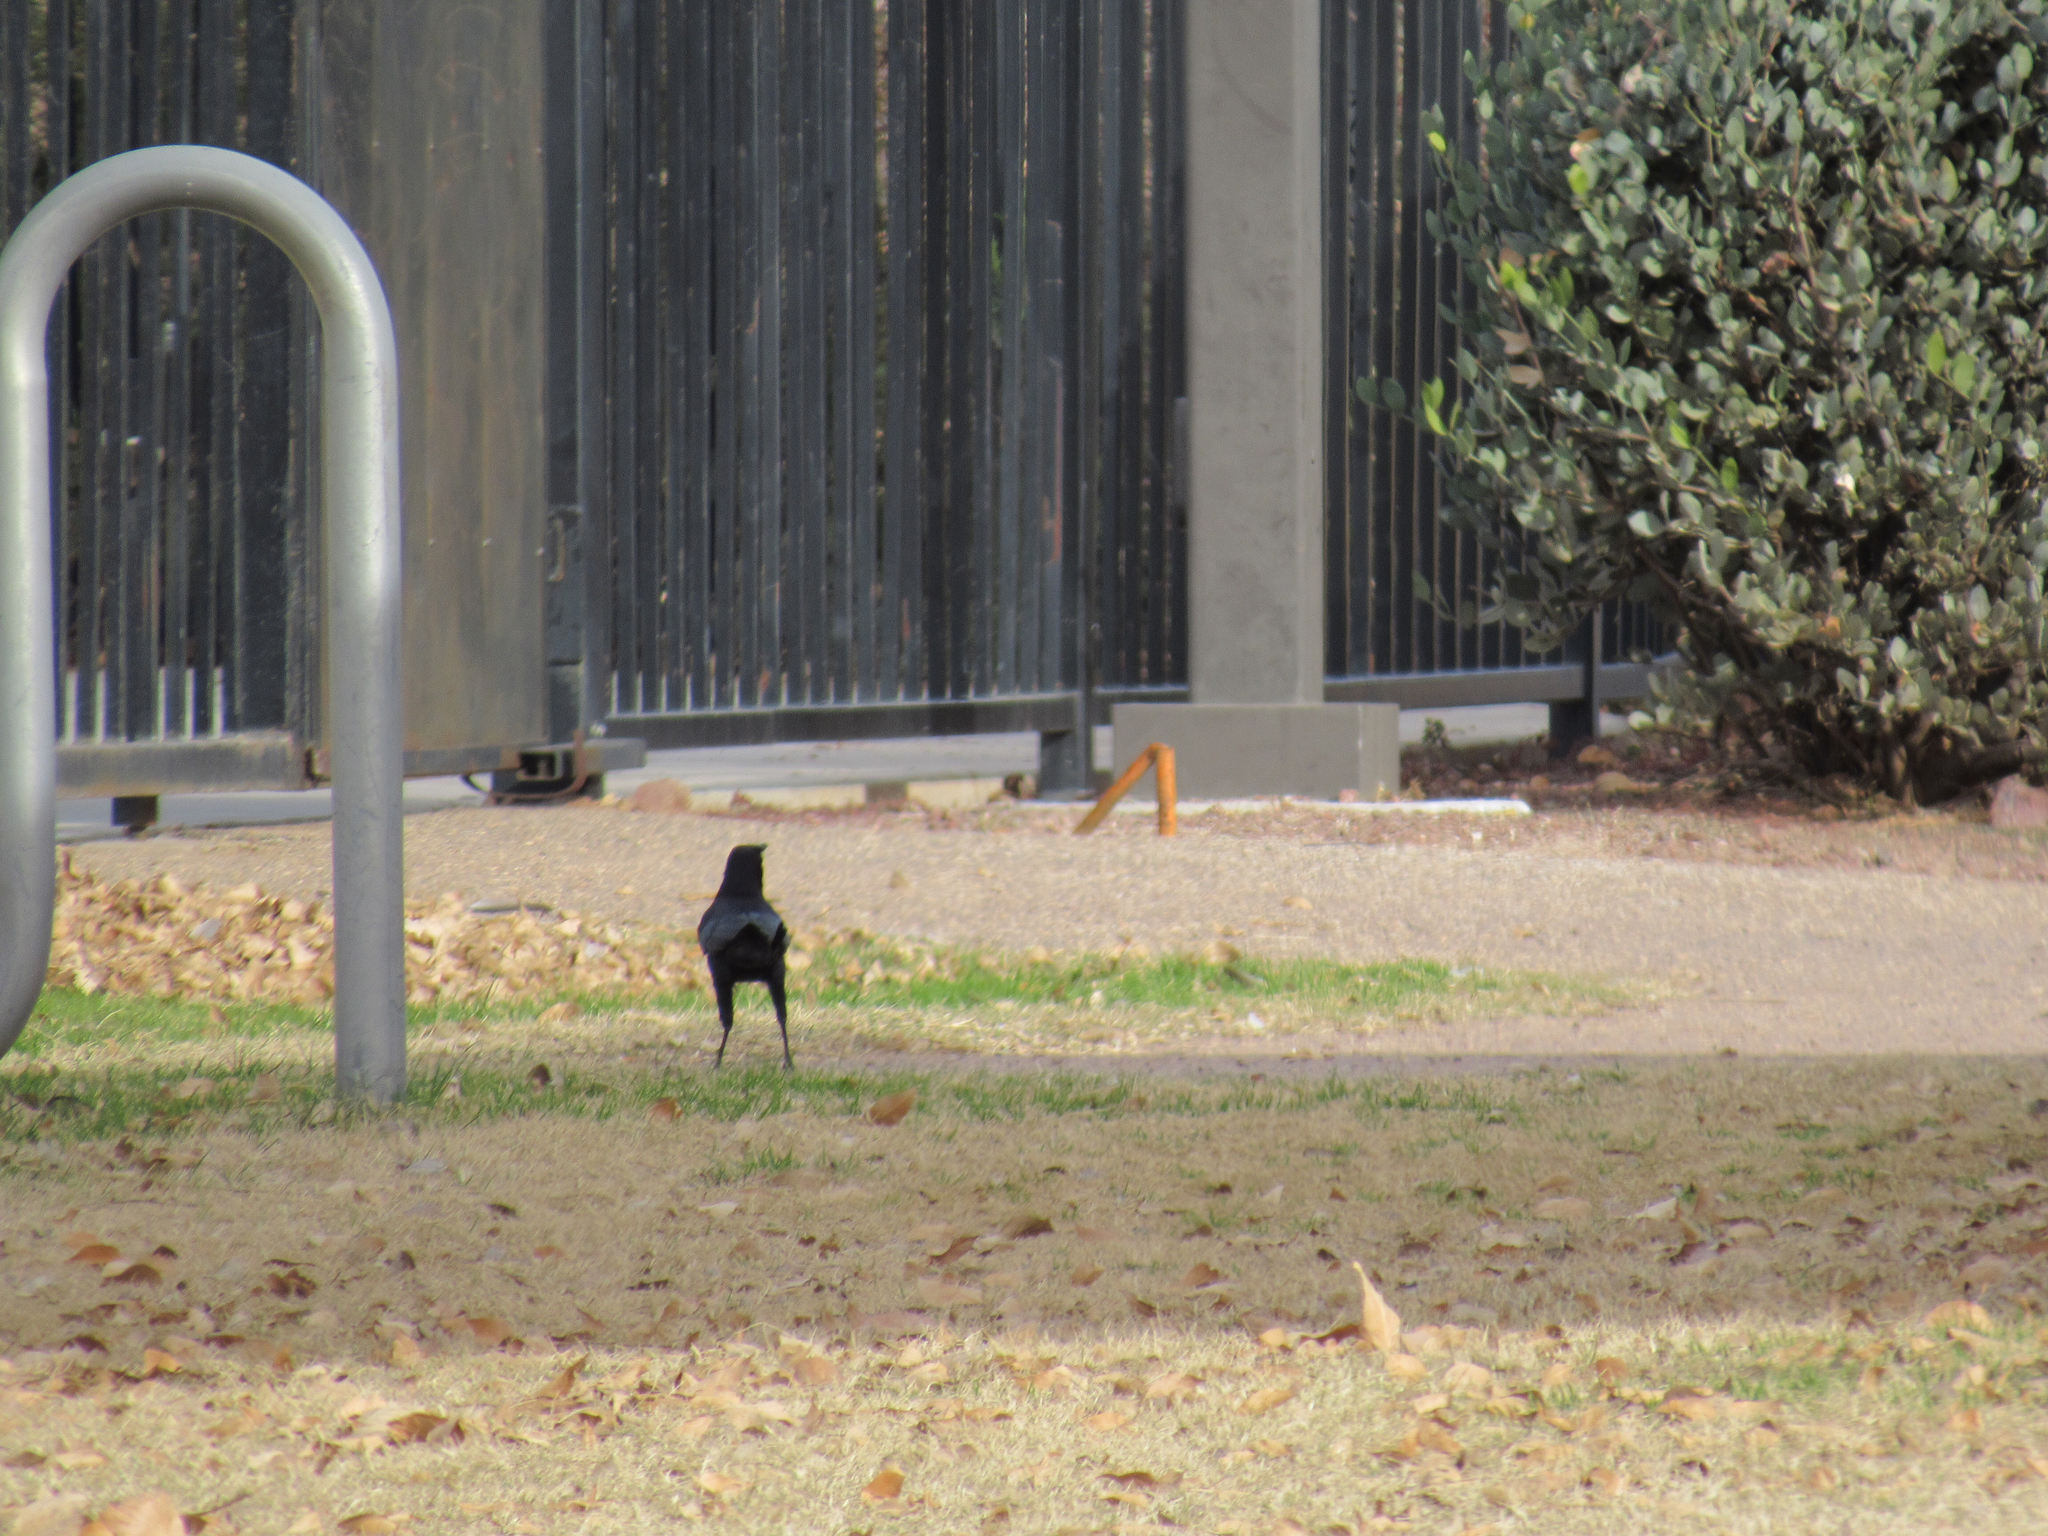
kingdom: Animalia
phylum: Chordata
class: Aves
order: Passeriformes
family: Icteridae
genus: Quiscalus
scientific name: Quiscalus mexicanus
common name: Great-tailed grackle
